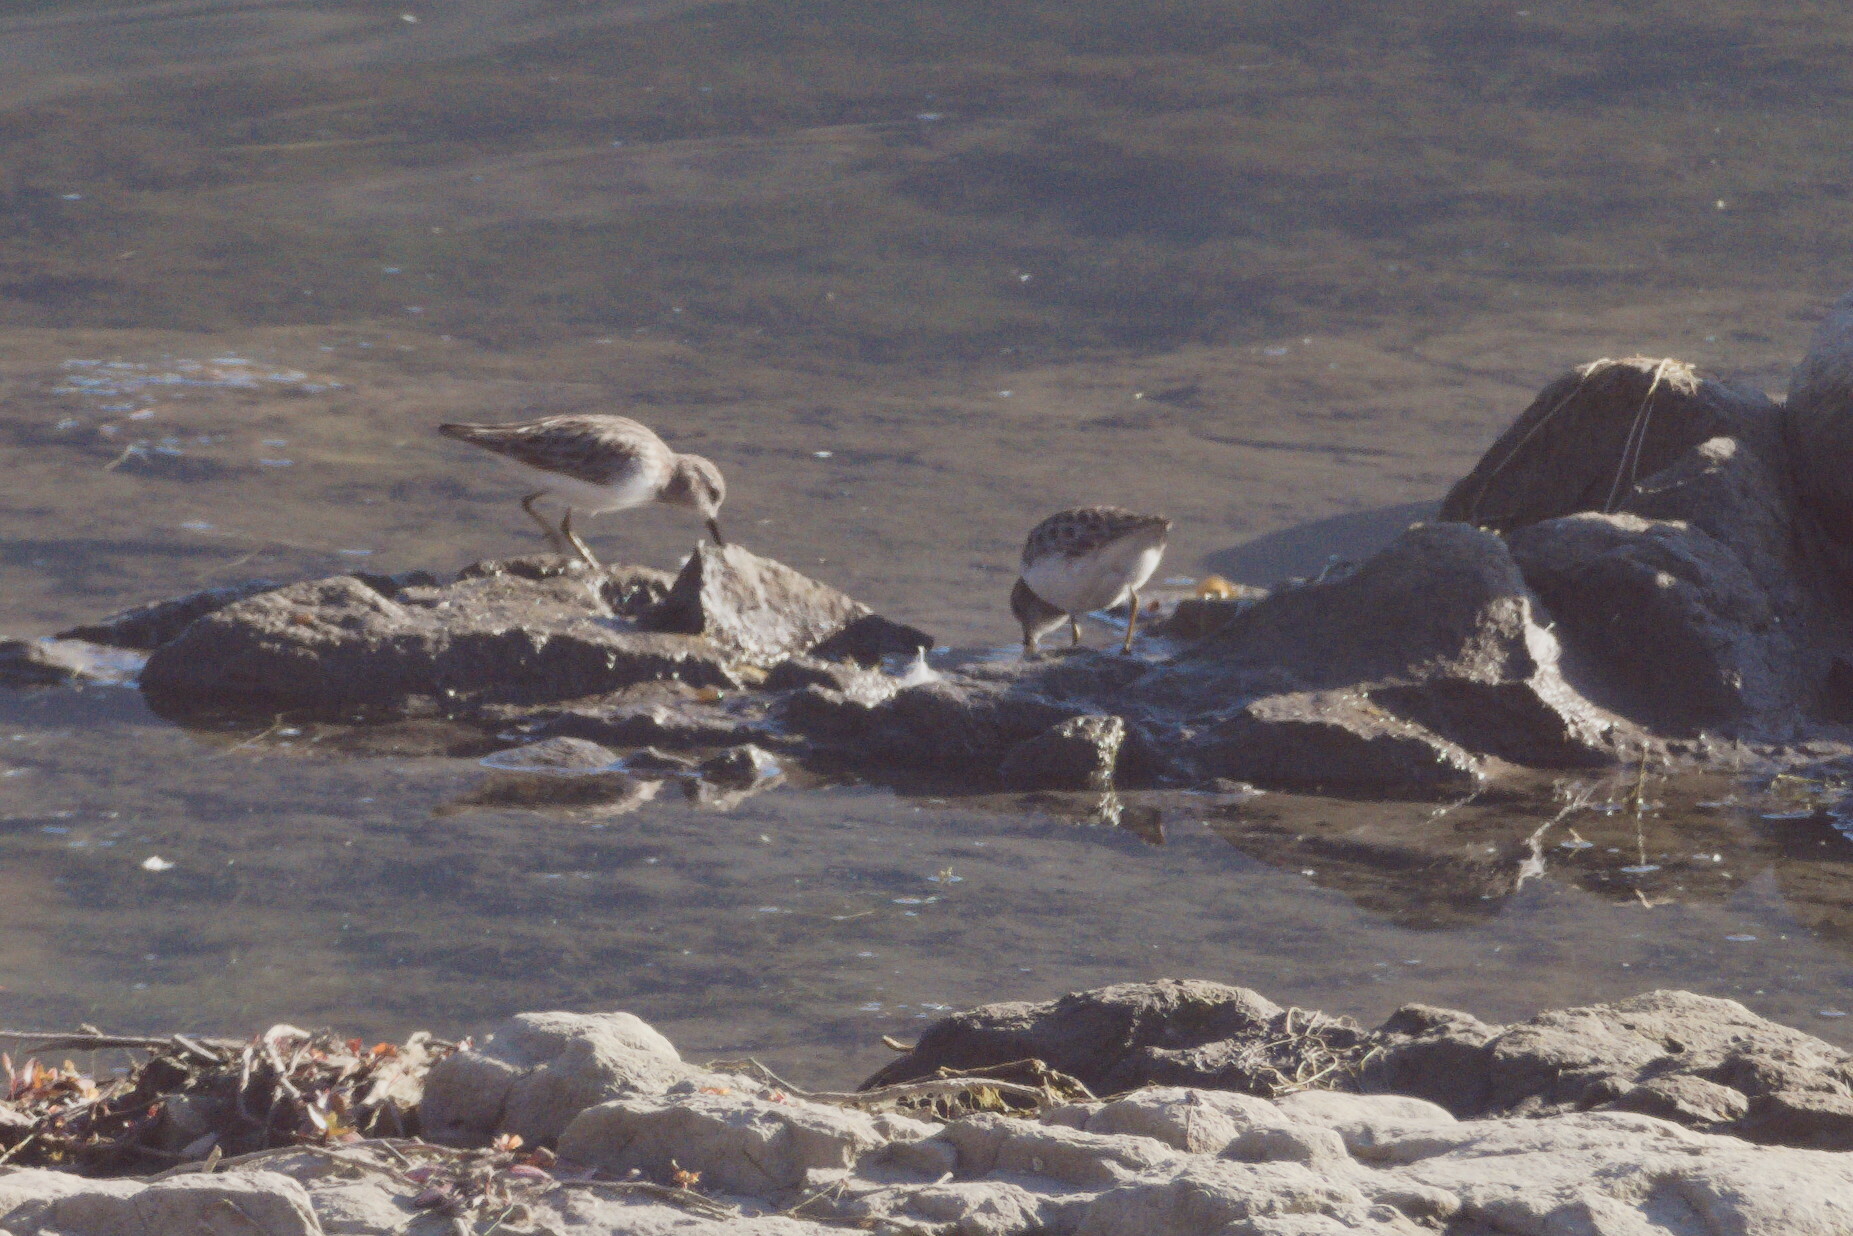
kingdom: Animalia
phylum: Chordata
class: Aves
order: Charadriiformes
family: Scolopacidae
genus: Calidris
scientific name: Calidris minutilla
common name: Least sandpiper
